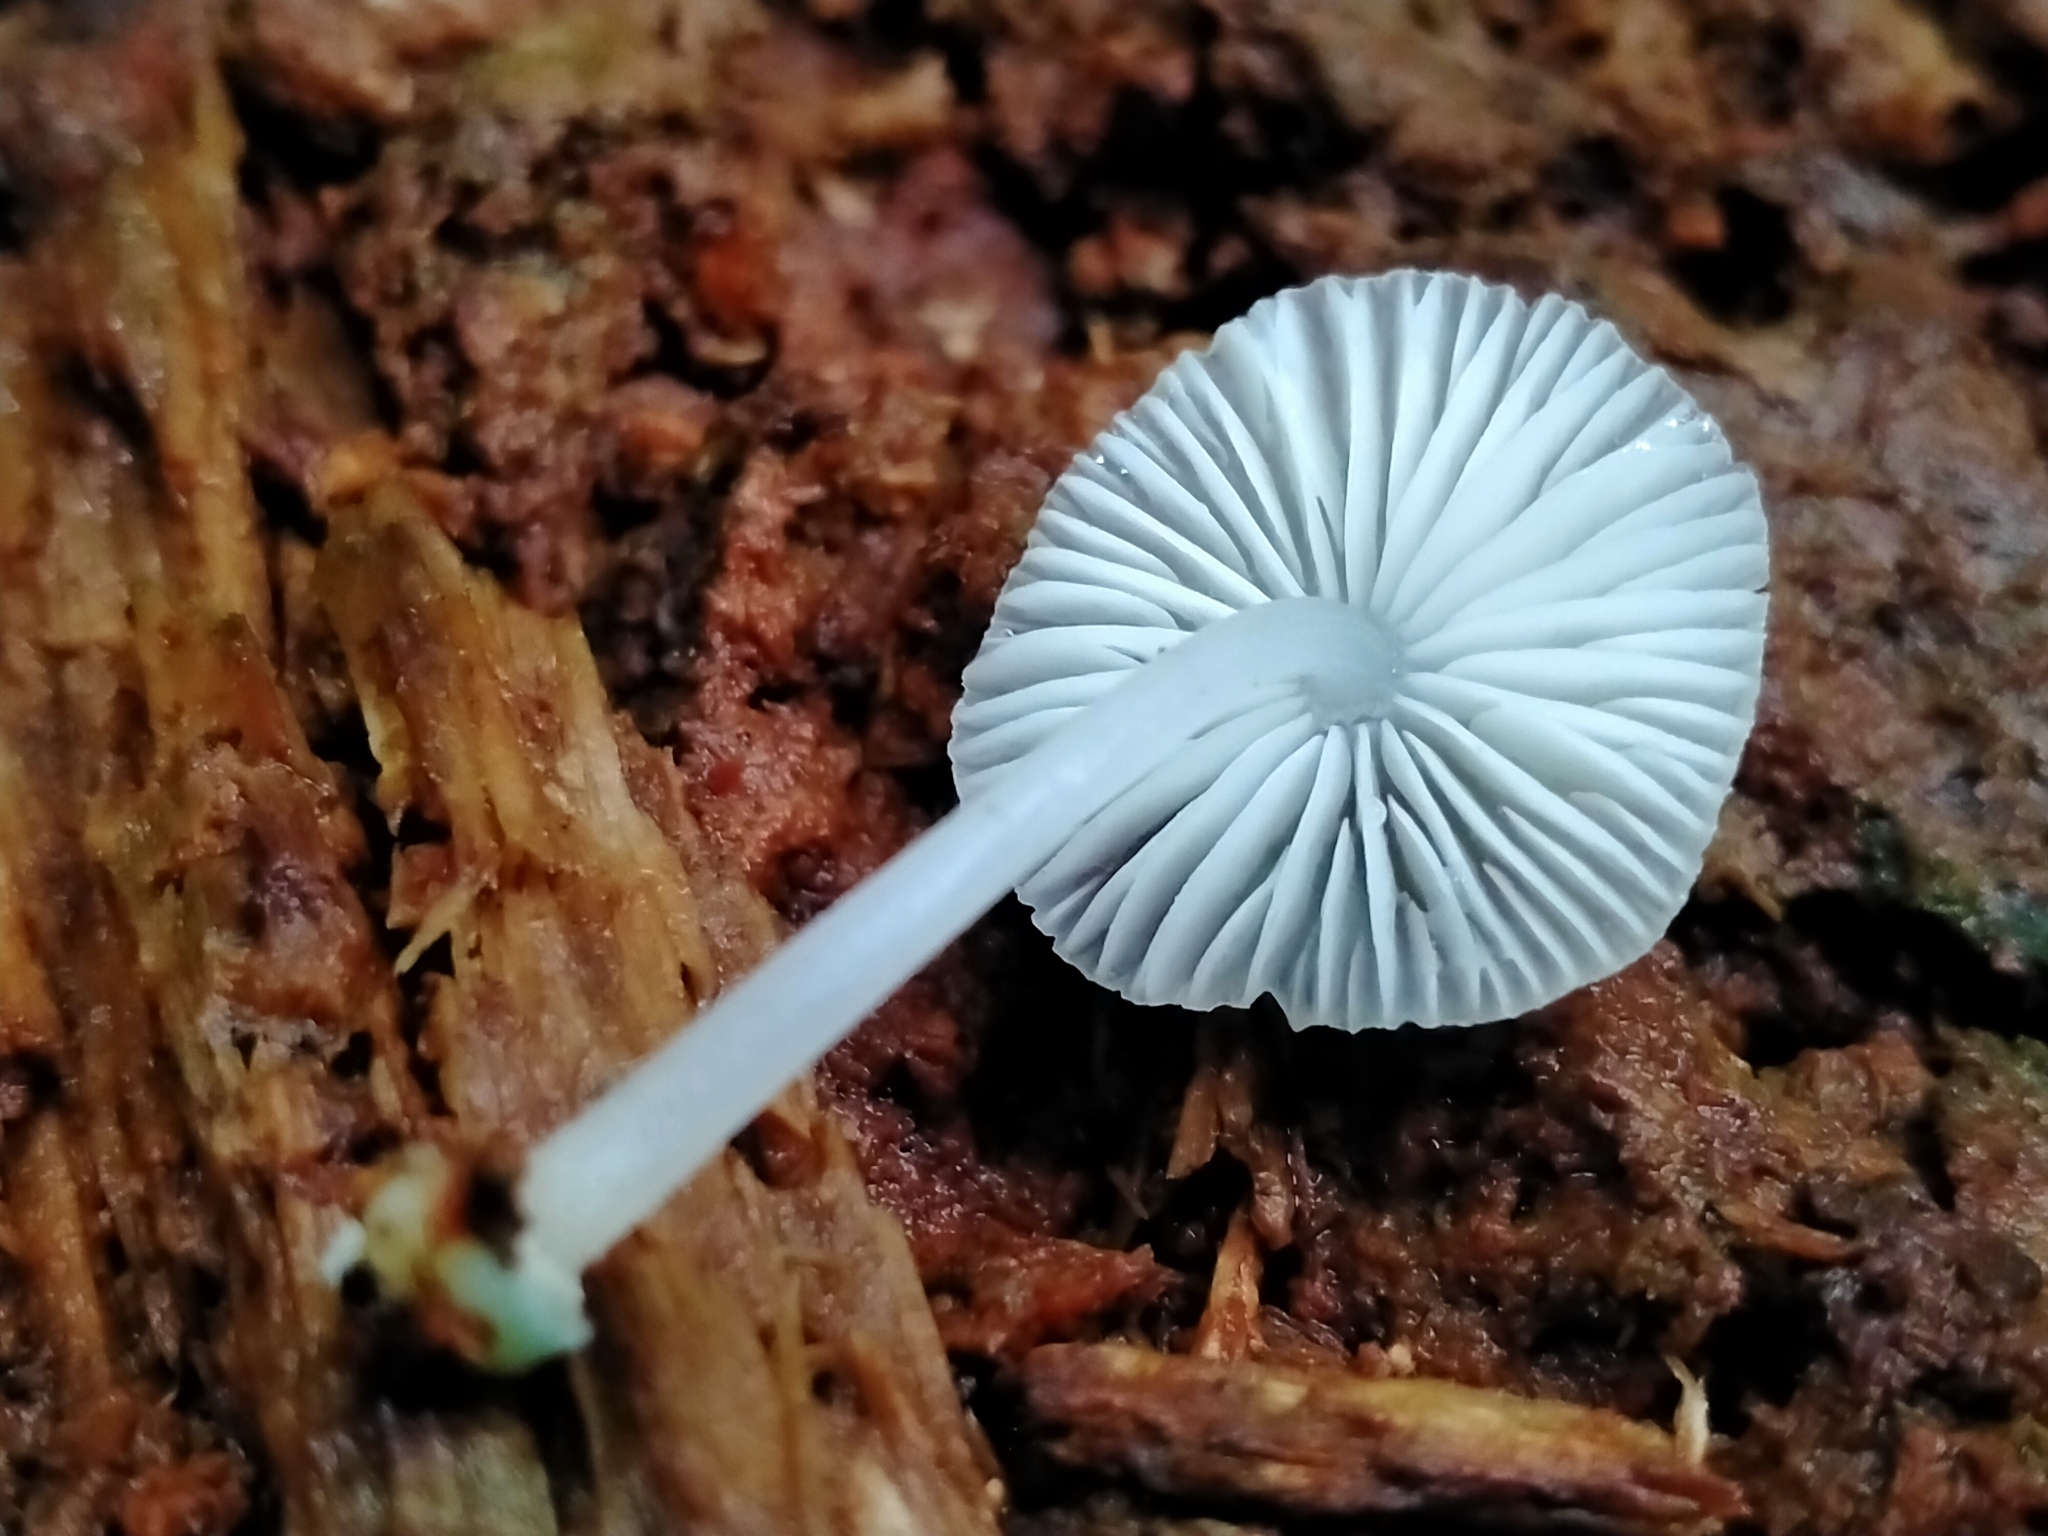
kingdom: Fungi
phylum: Basidiomycota
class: Agaricomycetes
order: Agaricales
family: Mycenaceae
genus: Mycena
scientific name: Mycena interrupta
